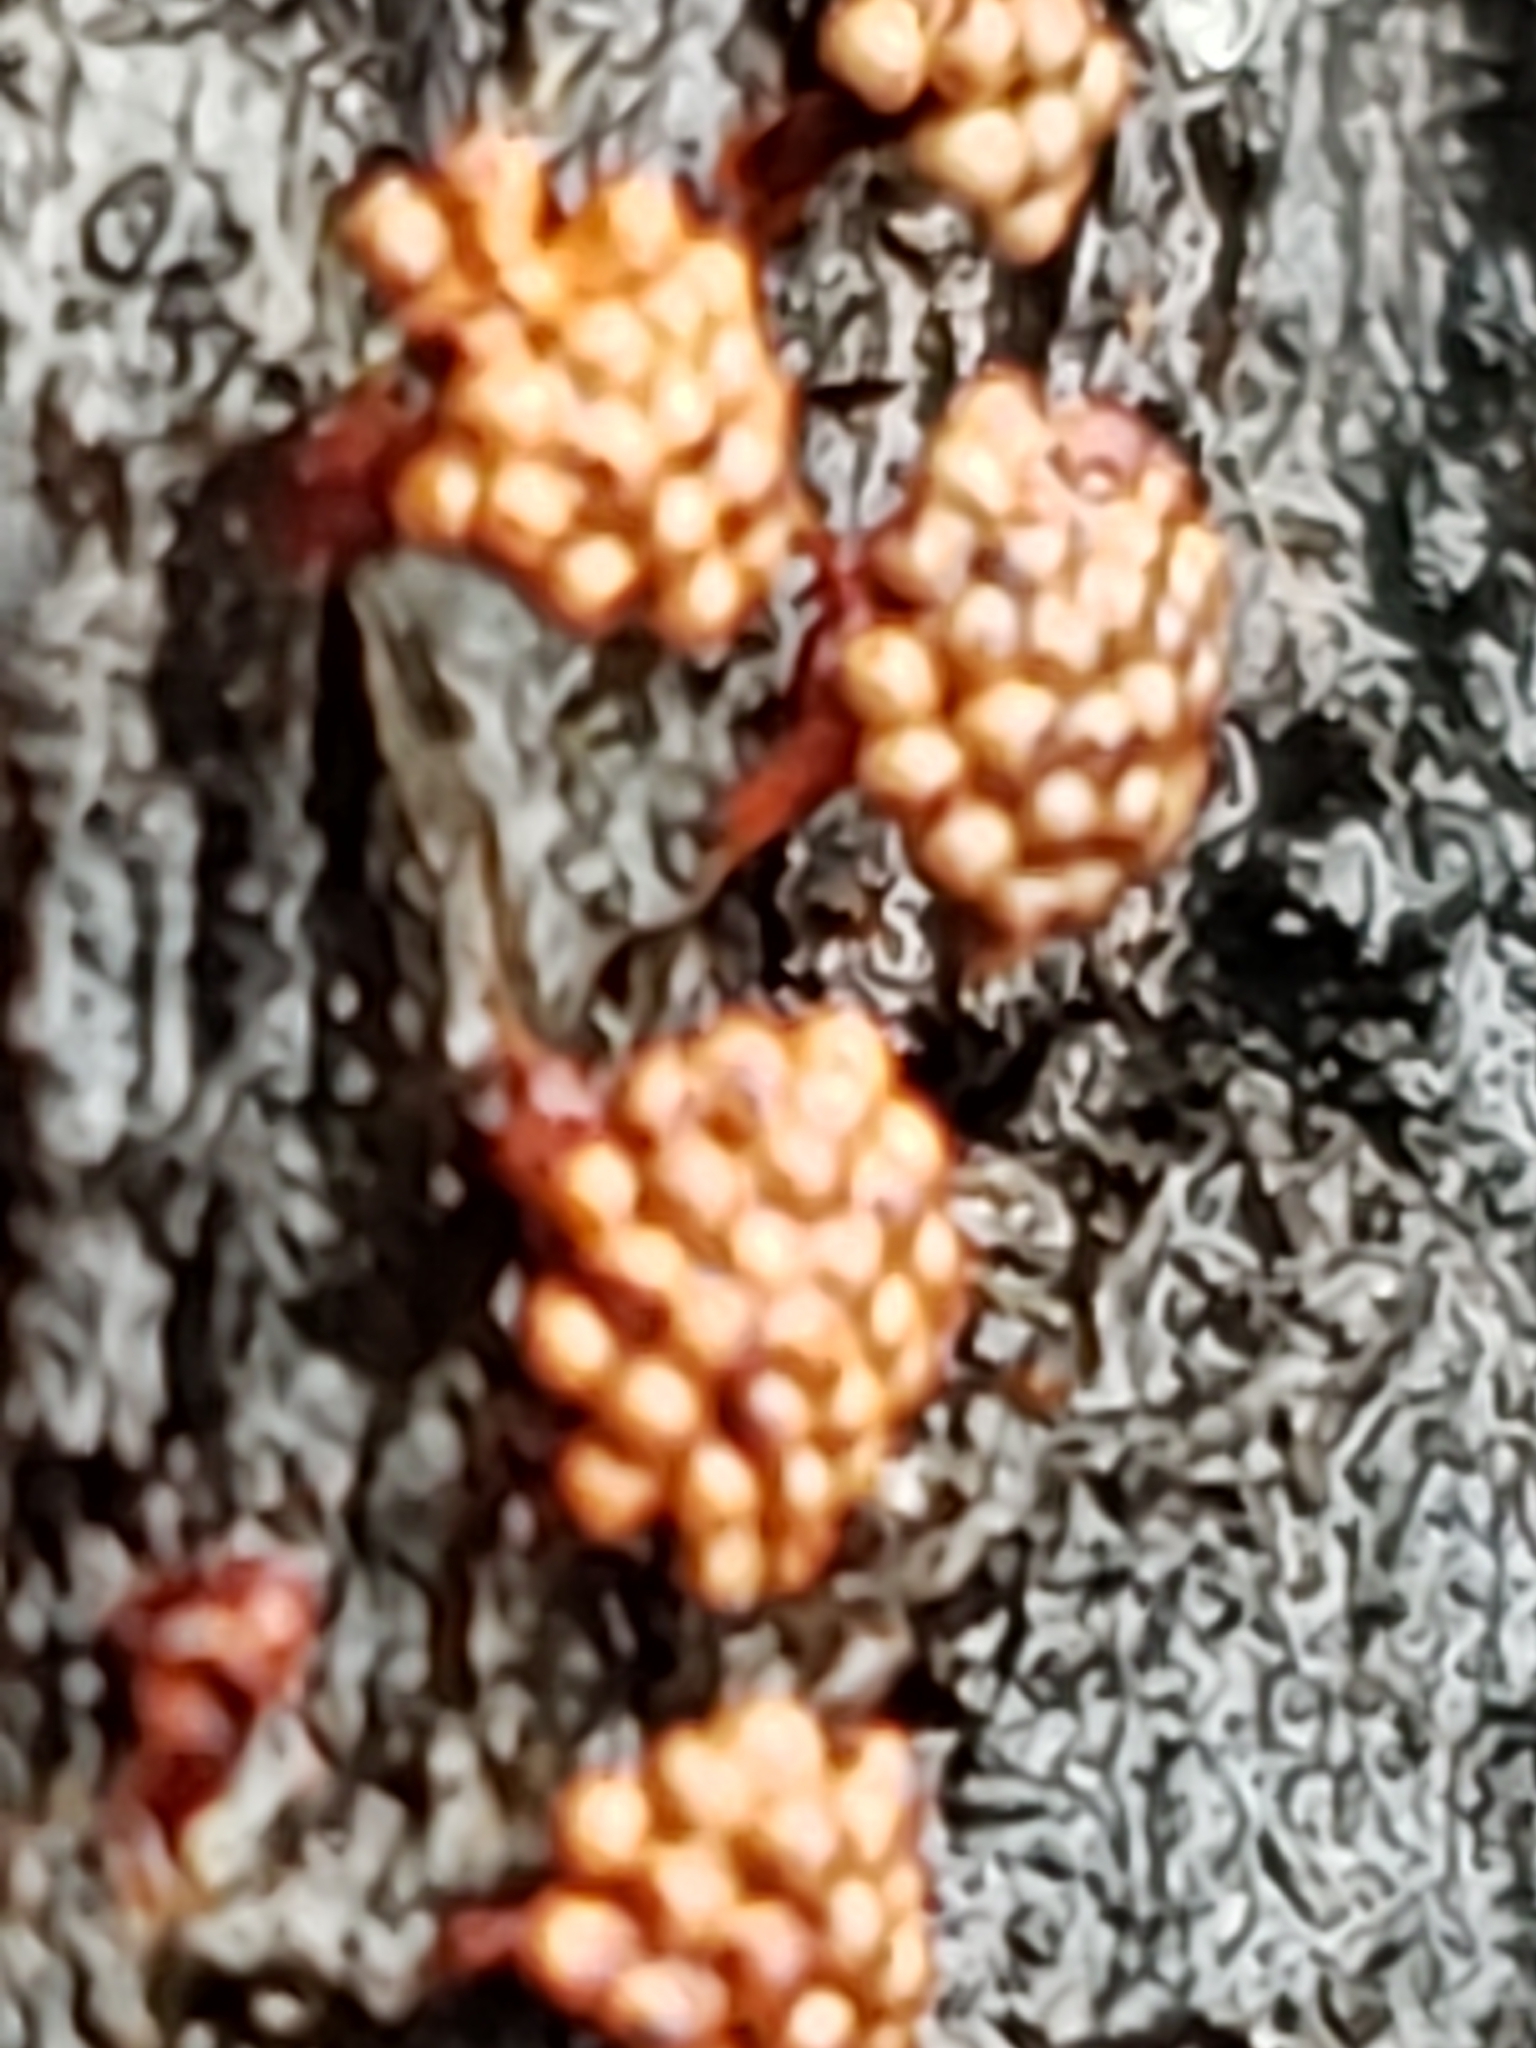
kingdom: Protozoa
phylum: Mycetozoa
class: Myxomycetes
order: Trichiales
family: Trichiaceae
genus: Metatrichia
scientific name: Metatrichia vesparia
